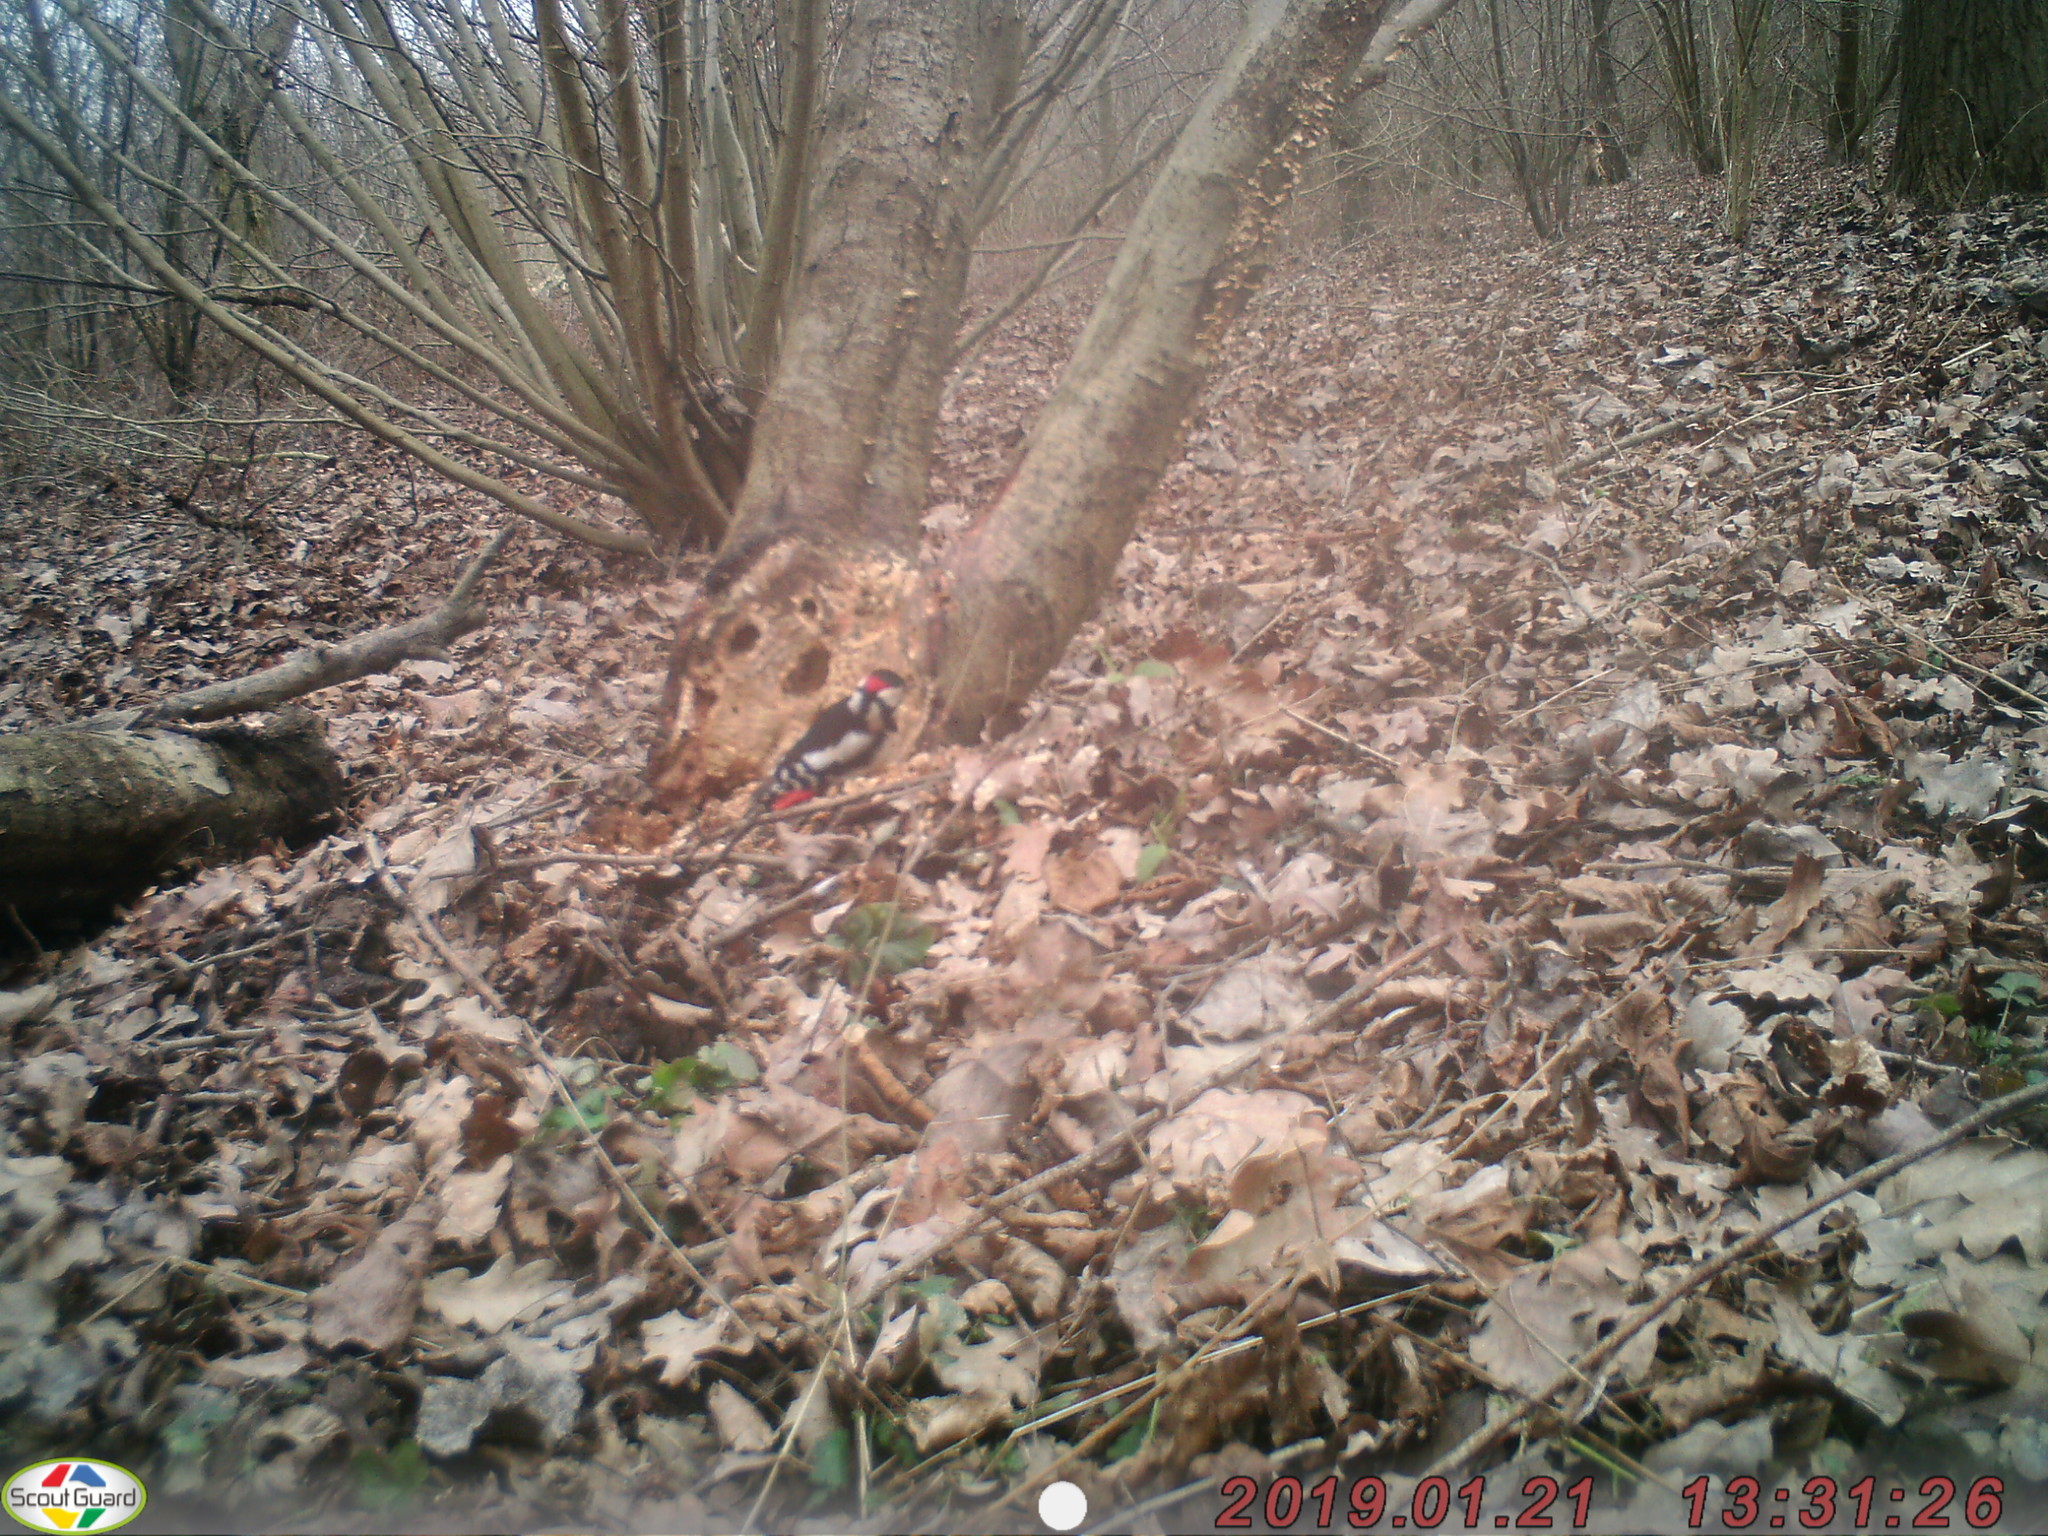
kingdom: Animalia
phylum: Chordata
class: Aves
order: Piciformes
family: Picidae
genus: Dendrocopos
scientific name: Dendrocopos major
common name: Great spotted woodpecker
